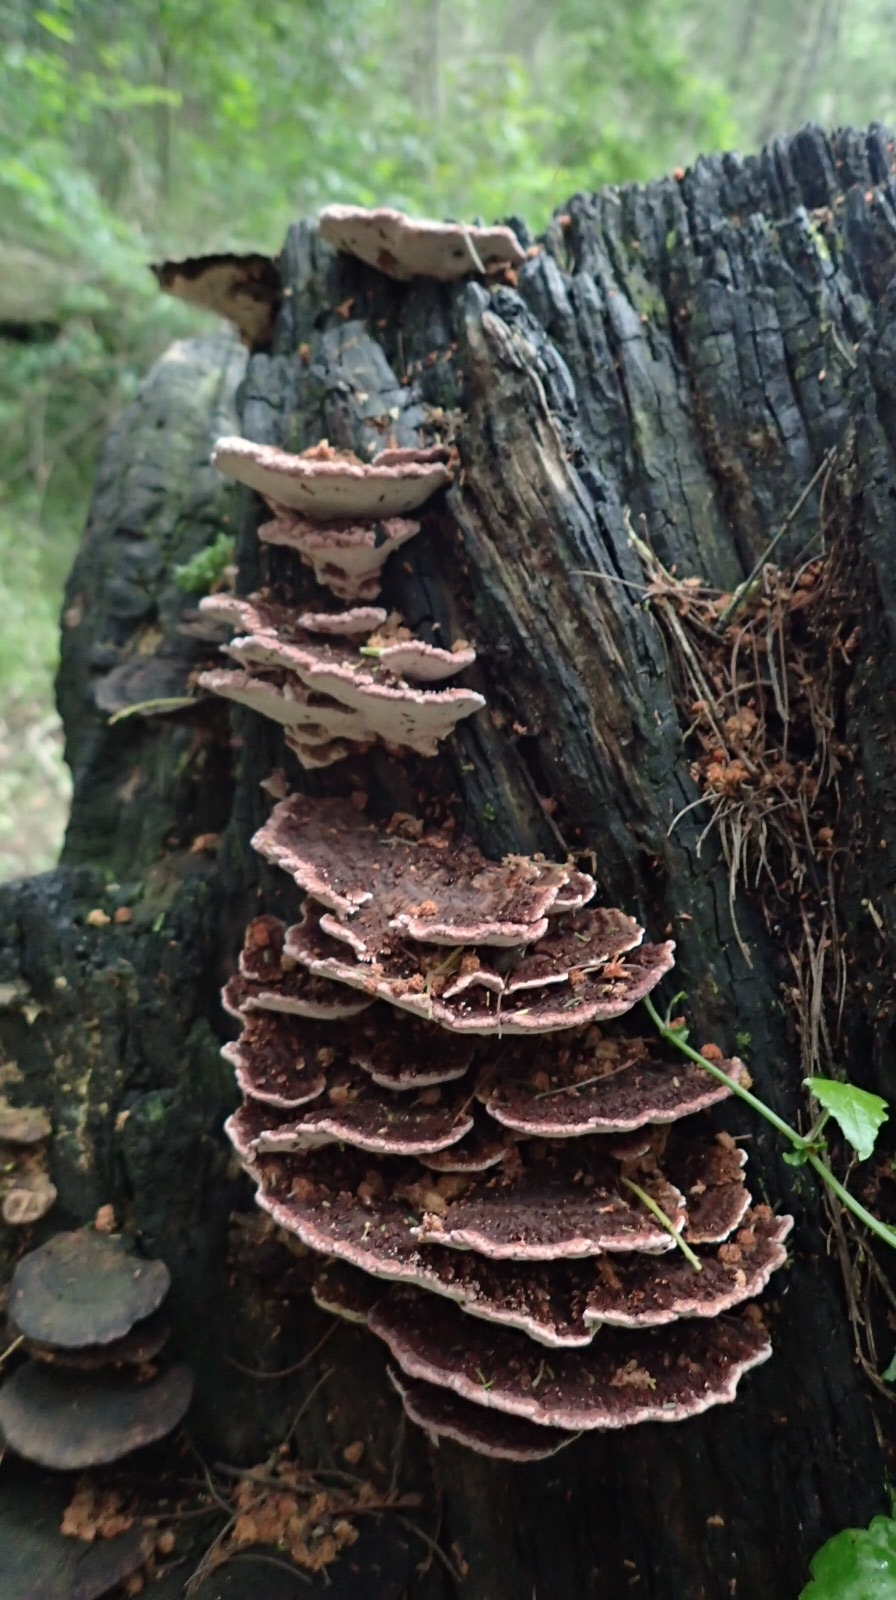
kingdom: Fungi
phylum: Basidiomycota
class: Agaricomycetes
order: Polyporales
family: Fomitopsidaceae
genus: Rhodofomitopsis
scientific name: Rhodofomitopsis lilacinogilva
